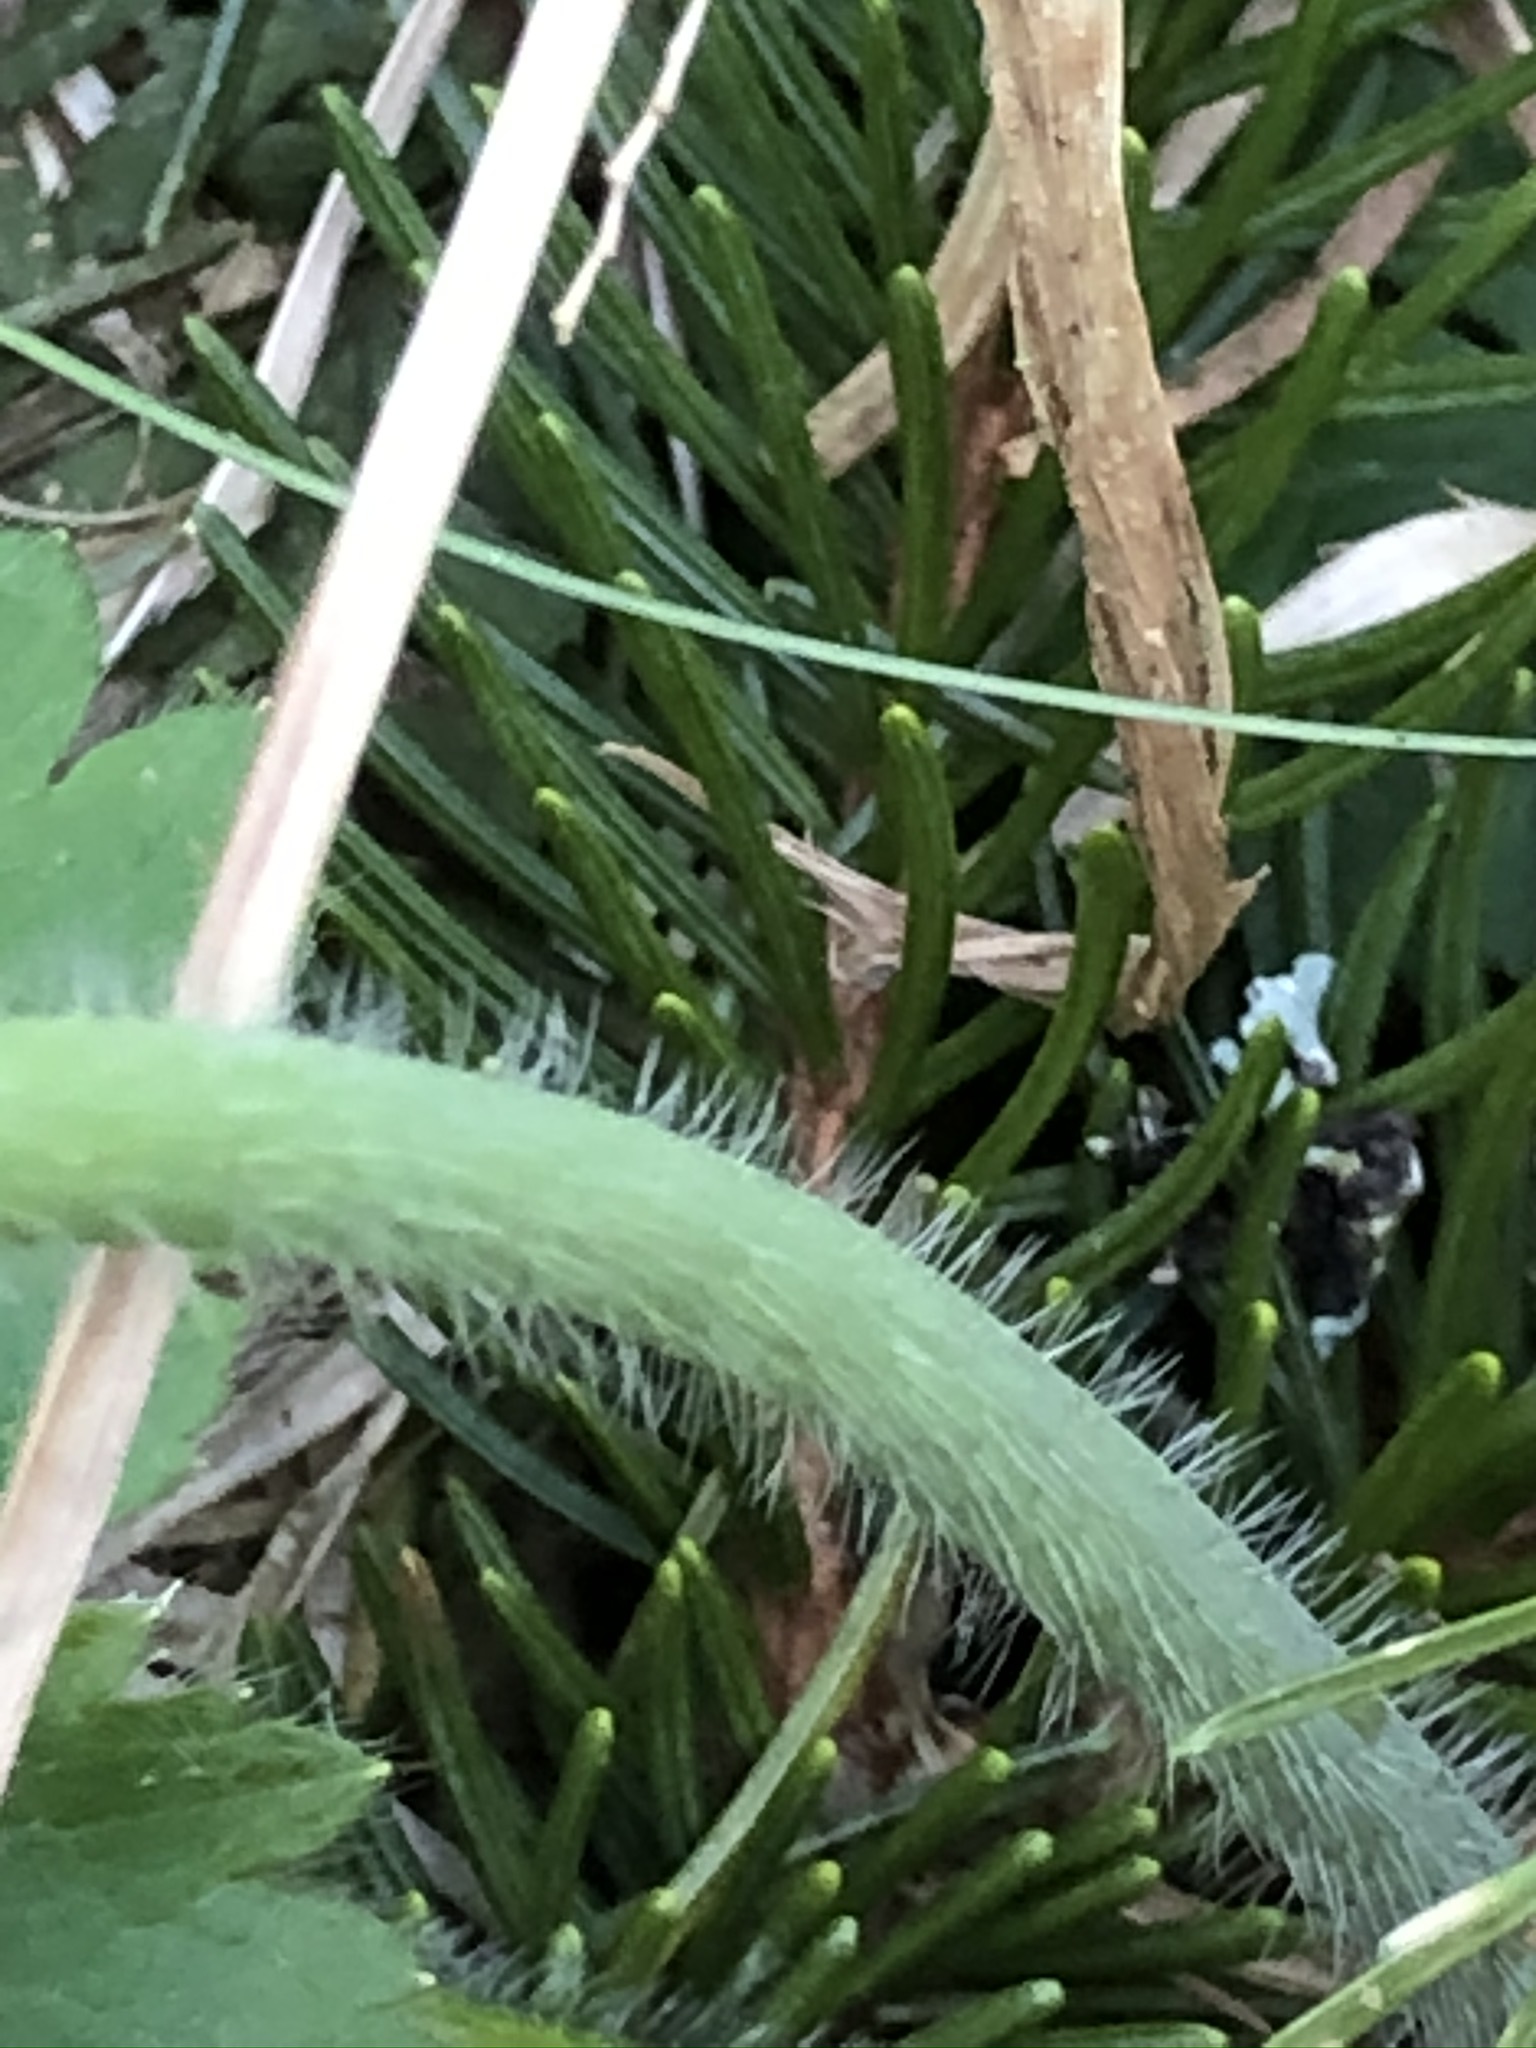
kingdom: Plantae
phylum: Tracheophyta
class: Magnoliopsida
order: Ranunculales
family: Ranunculaceae
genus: Ranunculus
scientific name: Ranunculus lanuginosus
